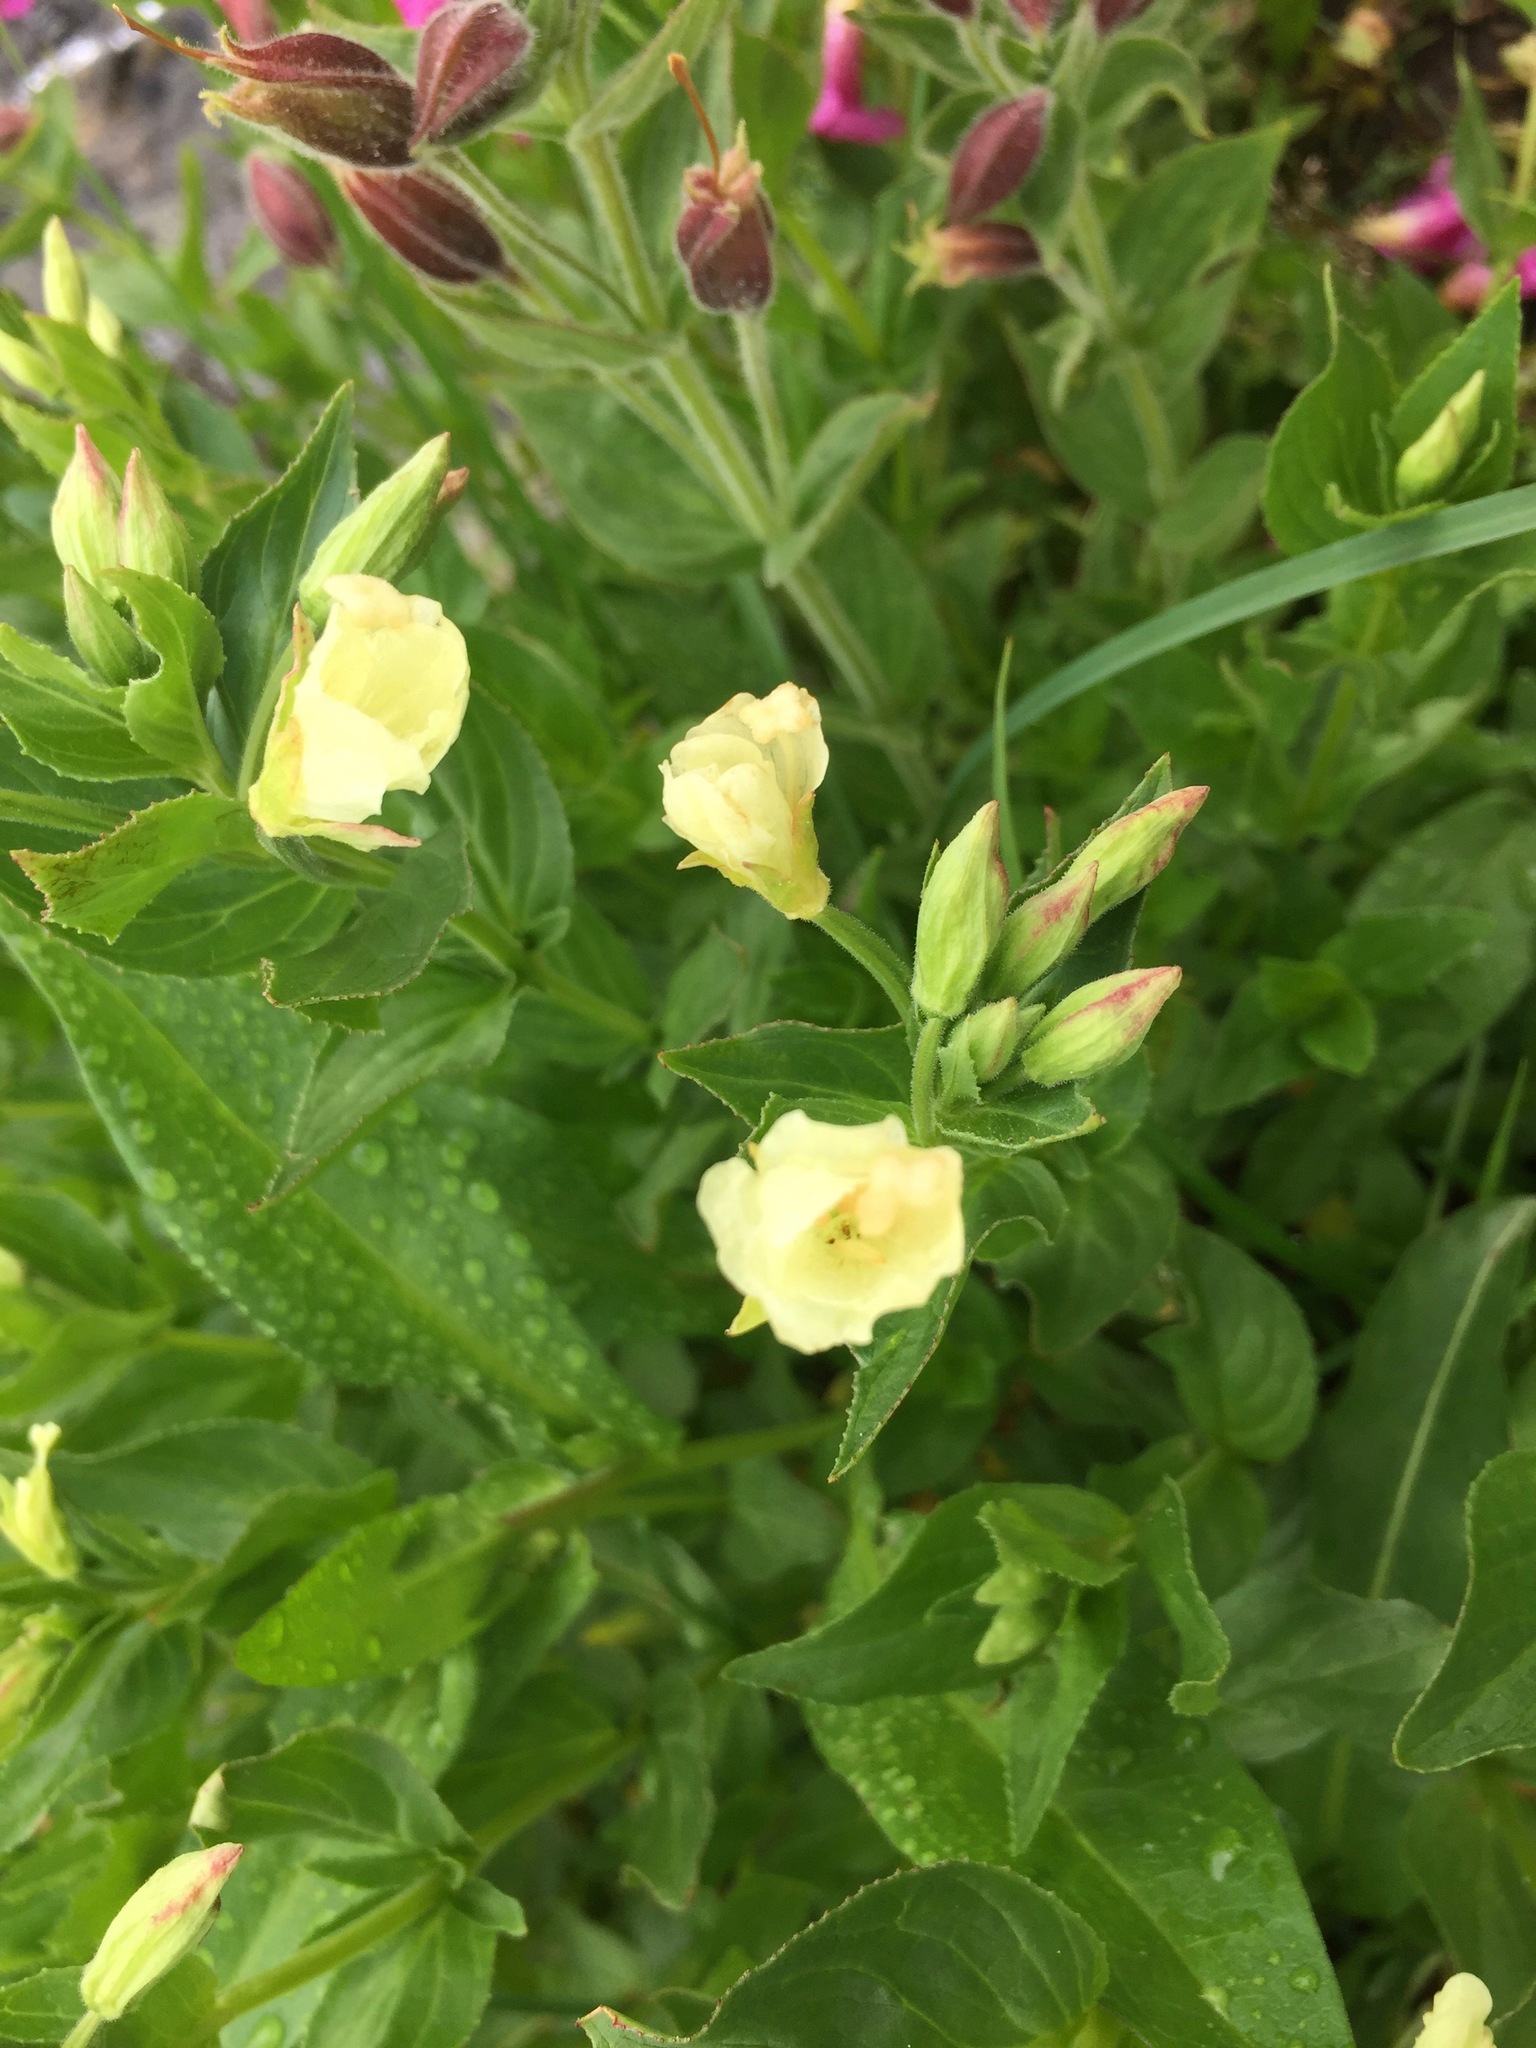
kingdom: Plantae
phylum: Tracheophyta
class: Magnoliopsida
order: Myrtales
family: Onagraceae
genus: Epilobium
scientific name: Epilobium luteum
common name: Yellow willowherb
